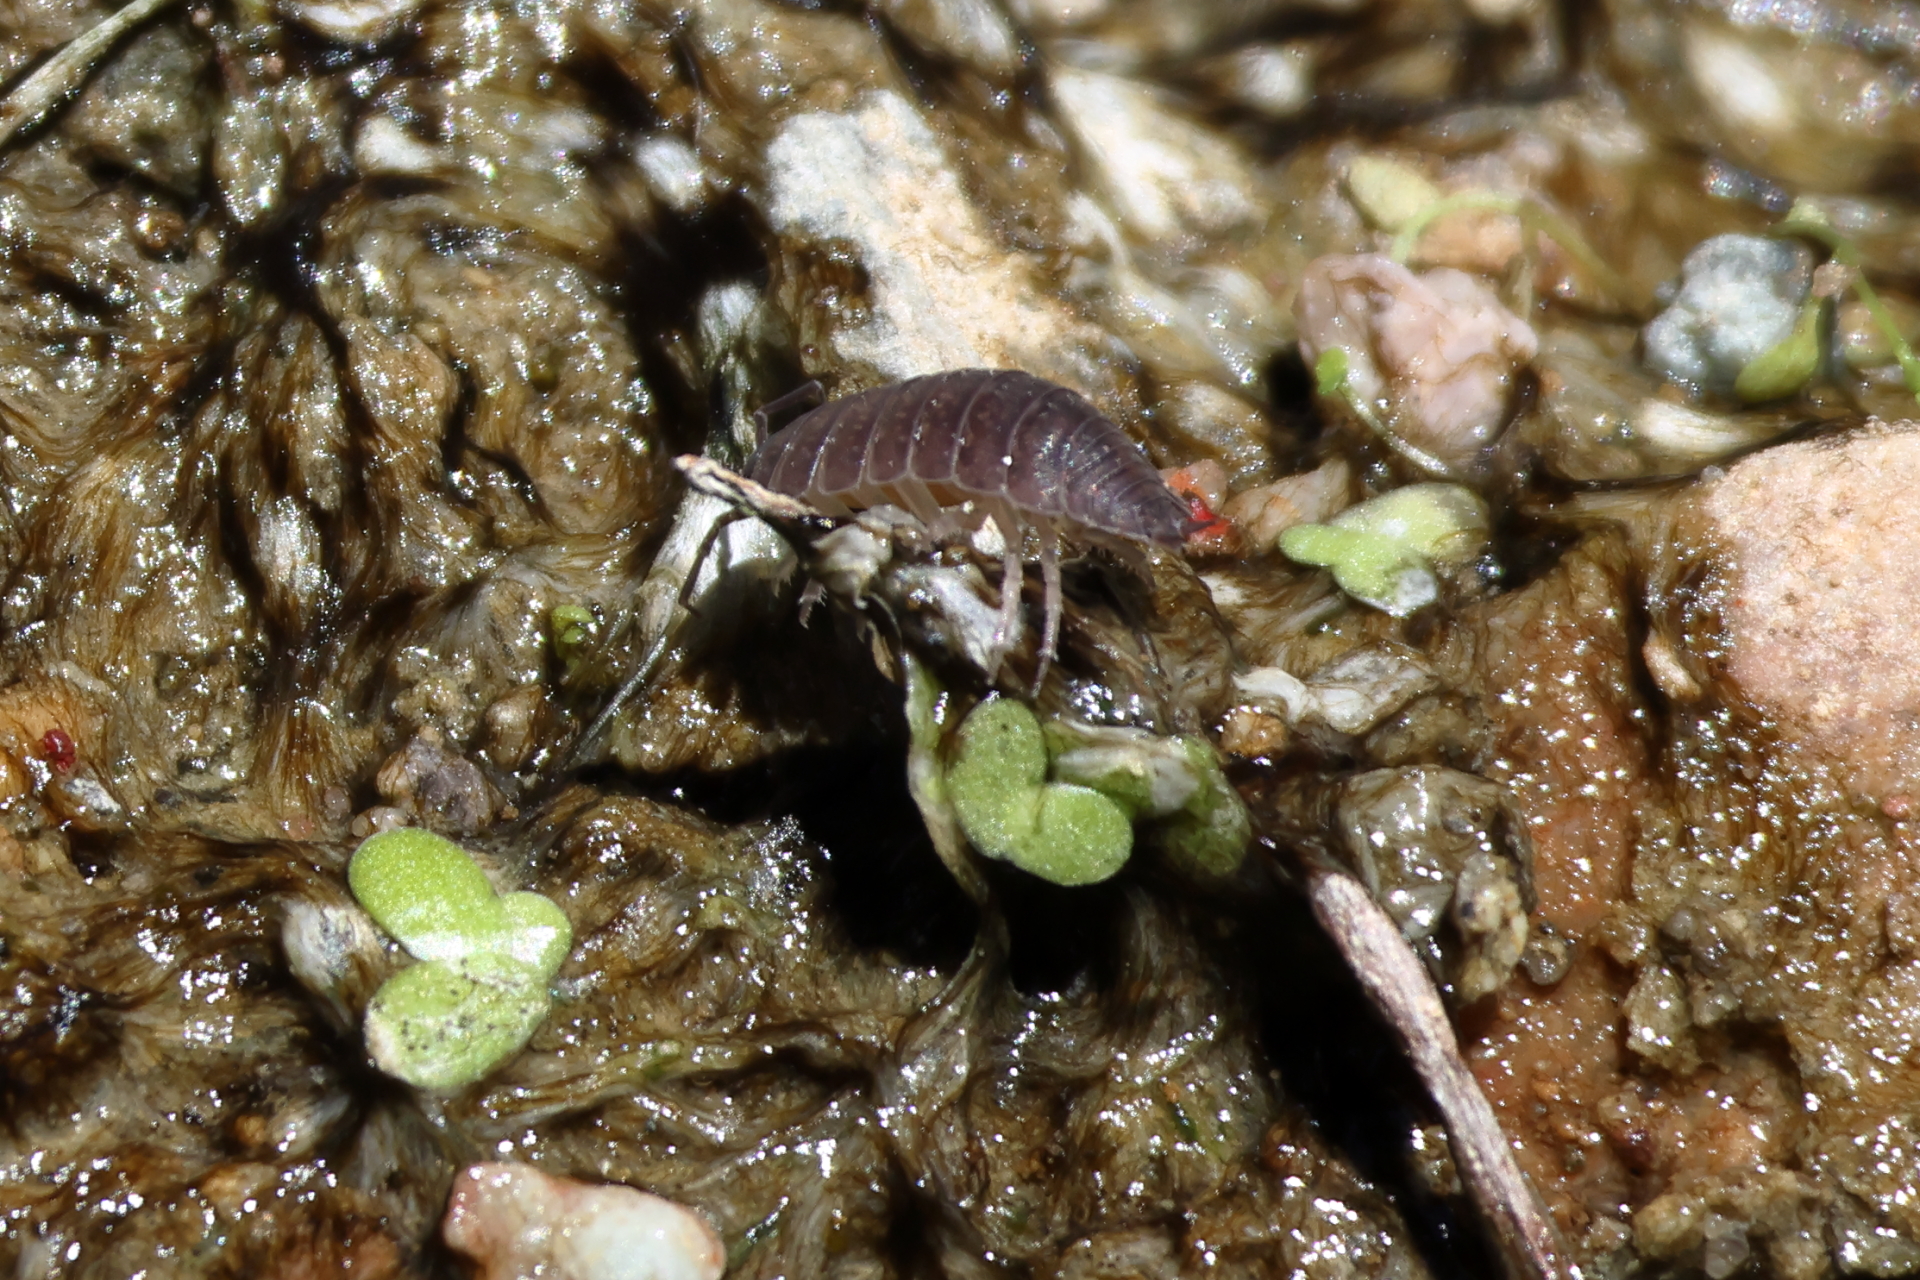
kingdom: Animalia
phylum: Arthropoda
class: Malacostraca
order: Isopoda
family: Porcellionidae
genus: Porcellio
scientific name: Porcellio laevis
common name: Swift woodlouse
